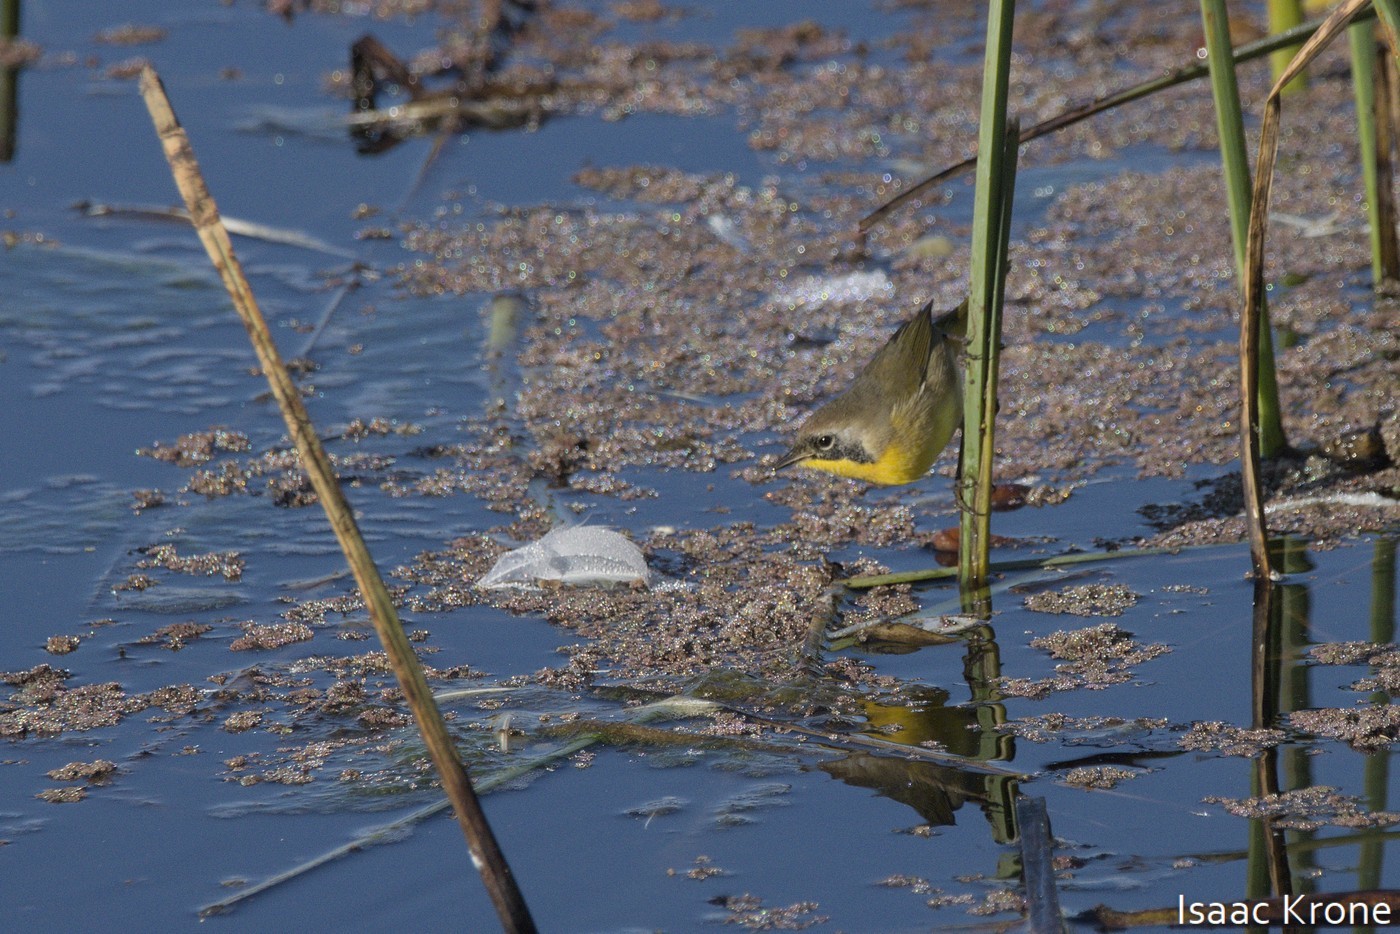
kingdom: Animalia
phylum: Chordata
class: Aves
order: Passeriformes
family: Parulidae
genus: Geothlypis
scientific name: Geothlypis trichas
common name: Common yellowthroat
